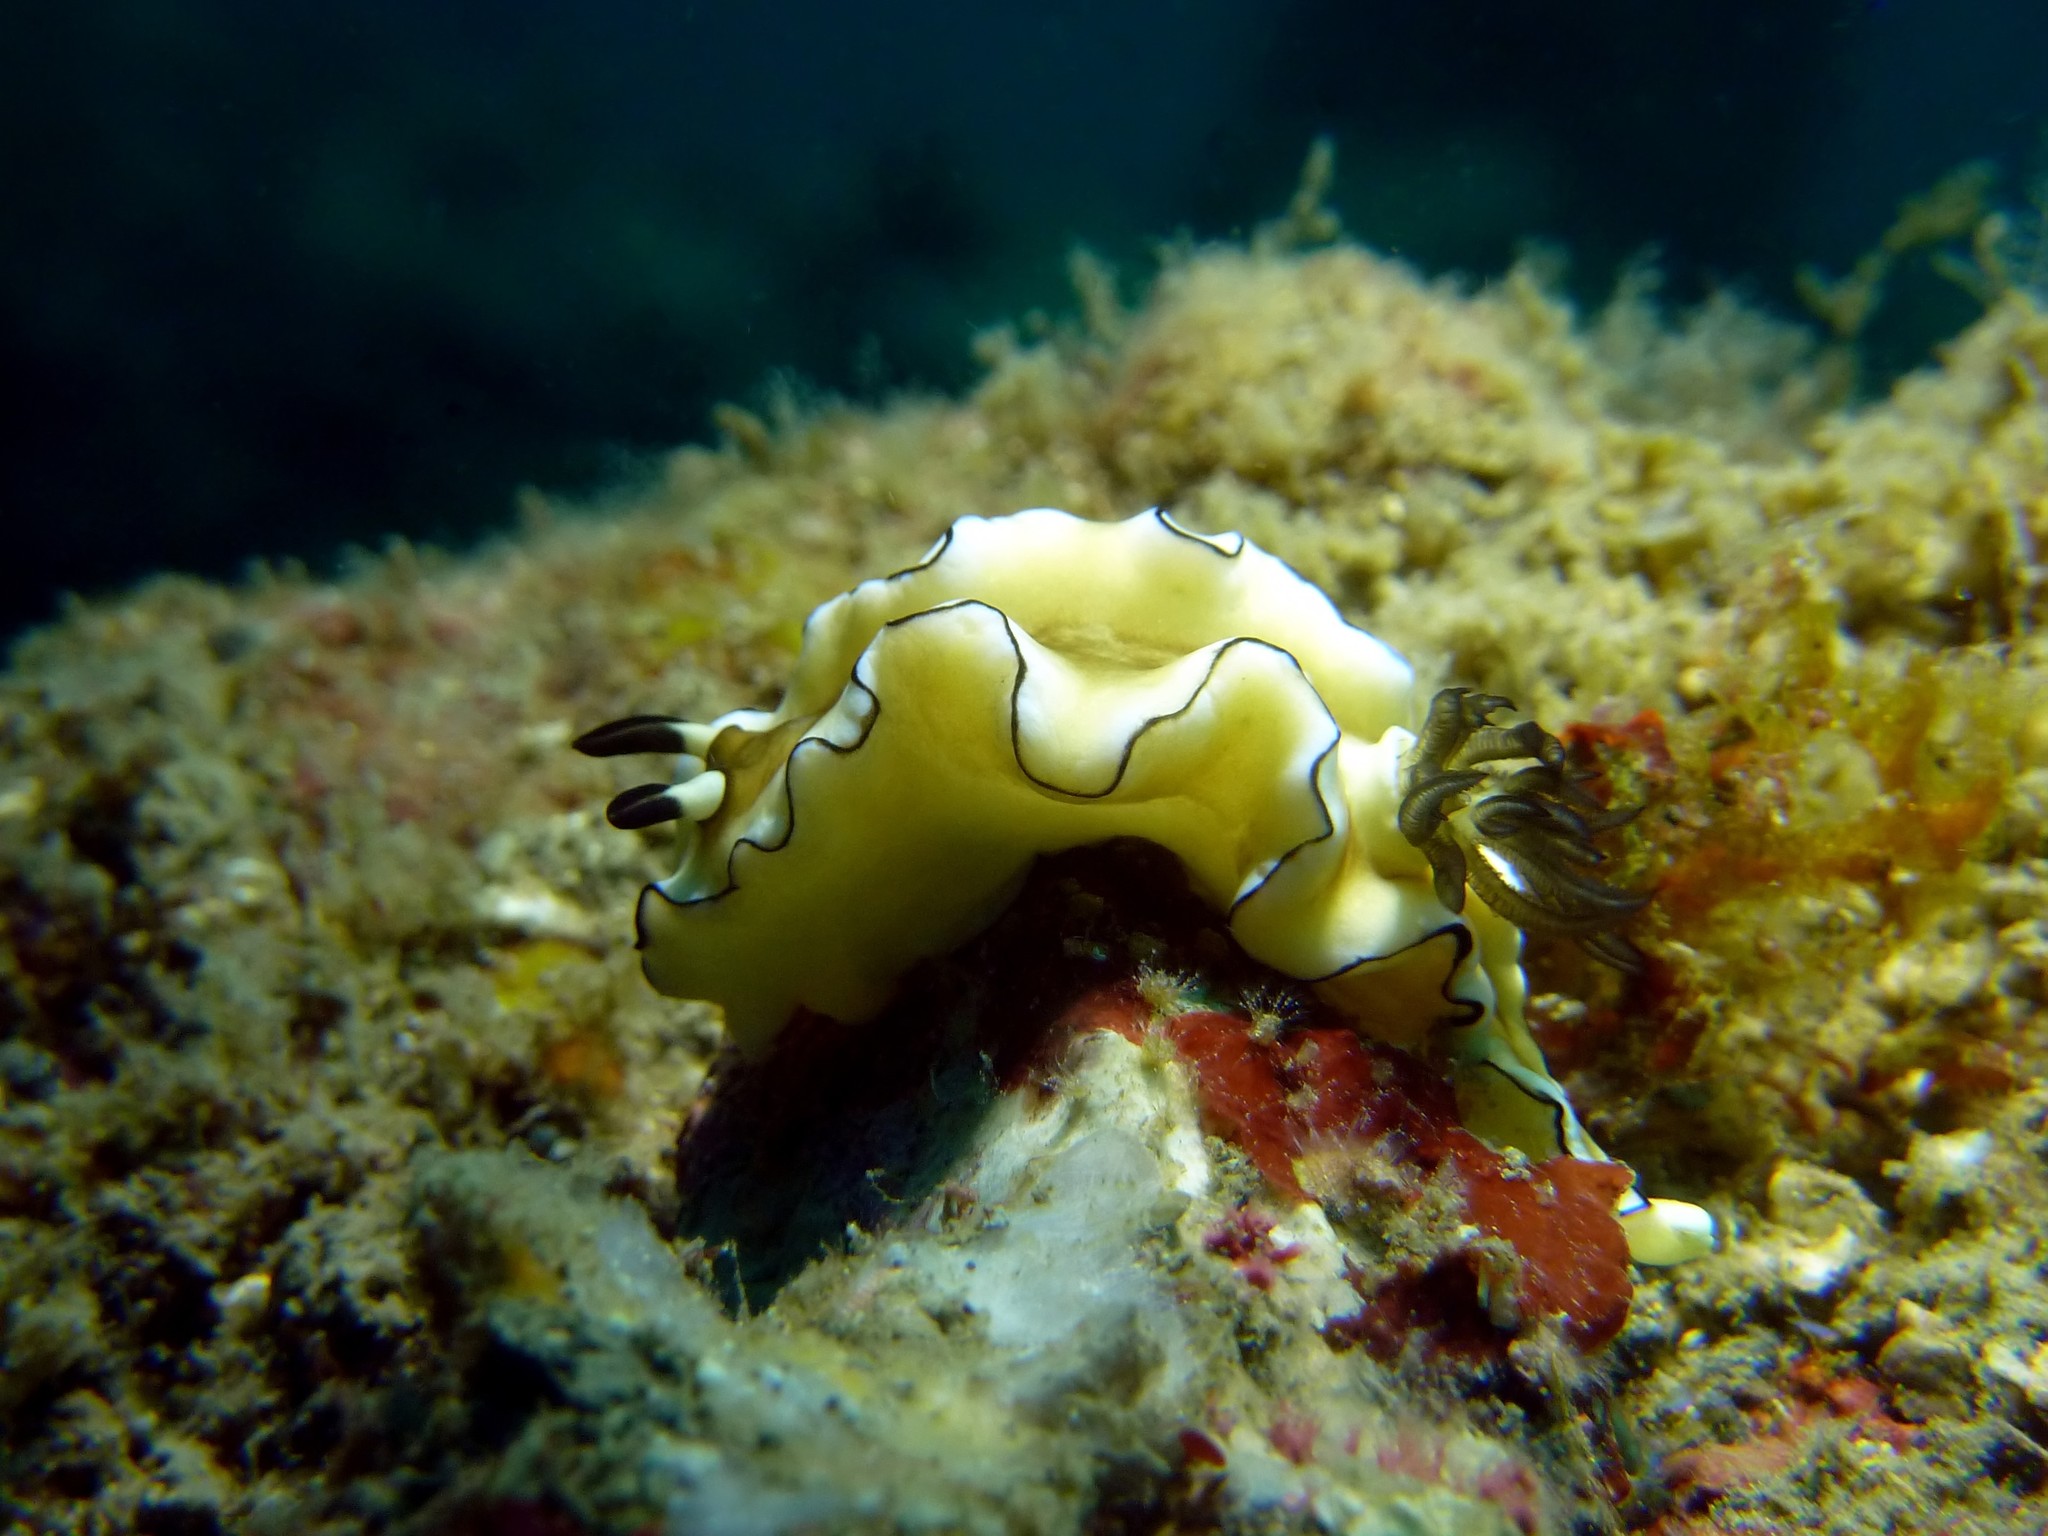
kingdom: Animalia
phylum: Mollusca
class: Gastropoda
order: Nudibranchia
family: Chromodorididae
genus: Doriprismatica
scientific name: Doriprismatica atromarginata
